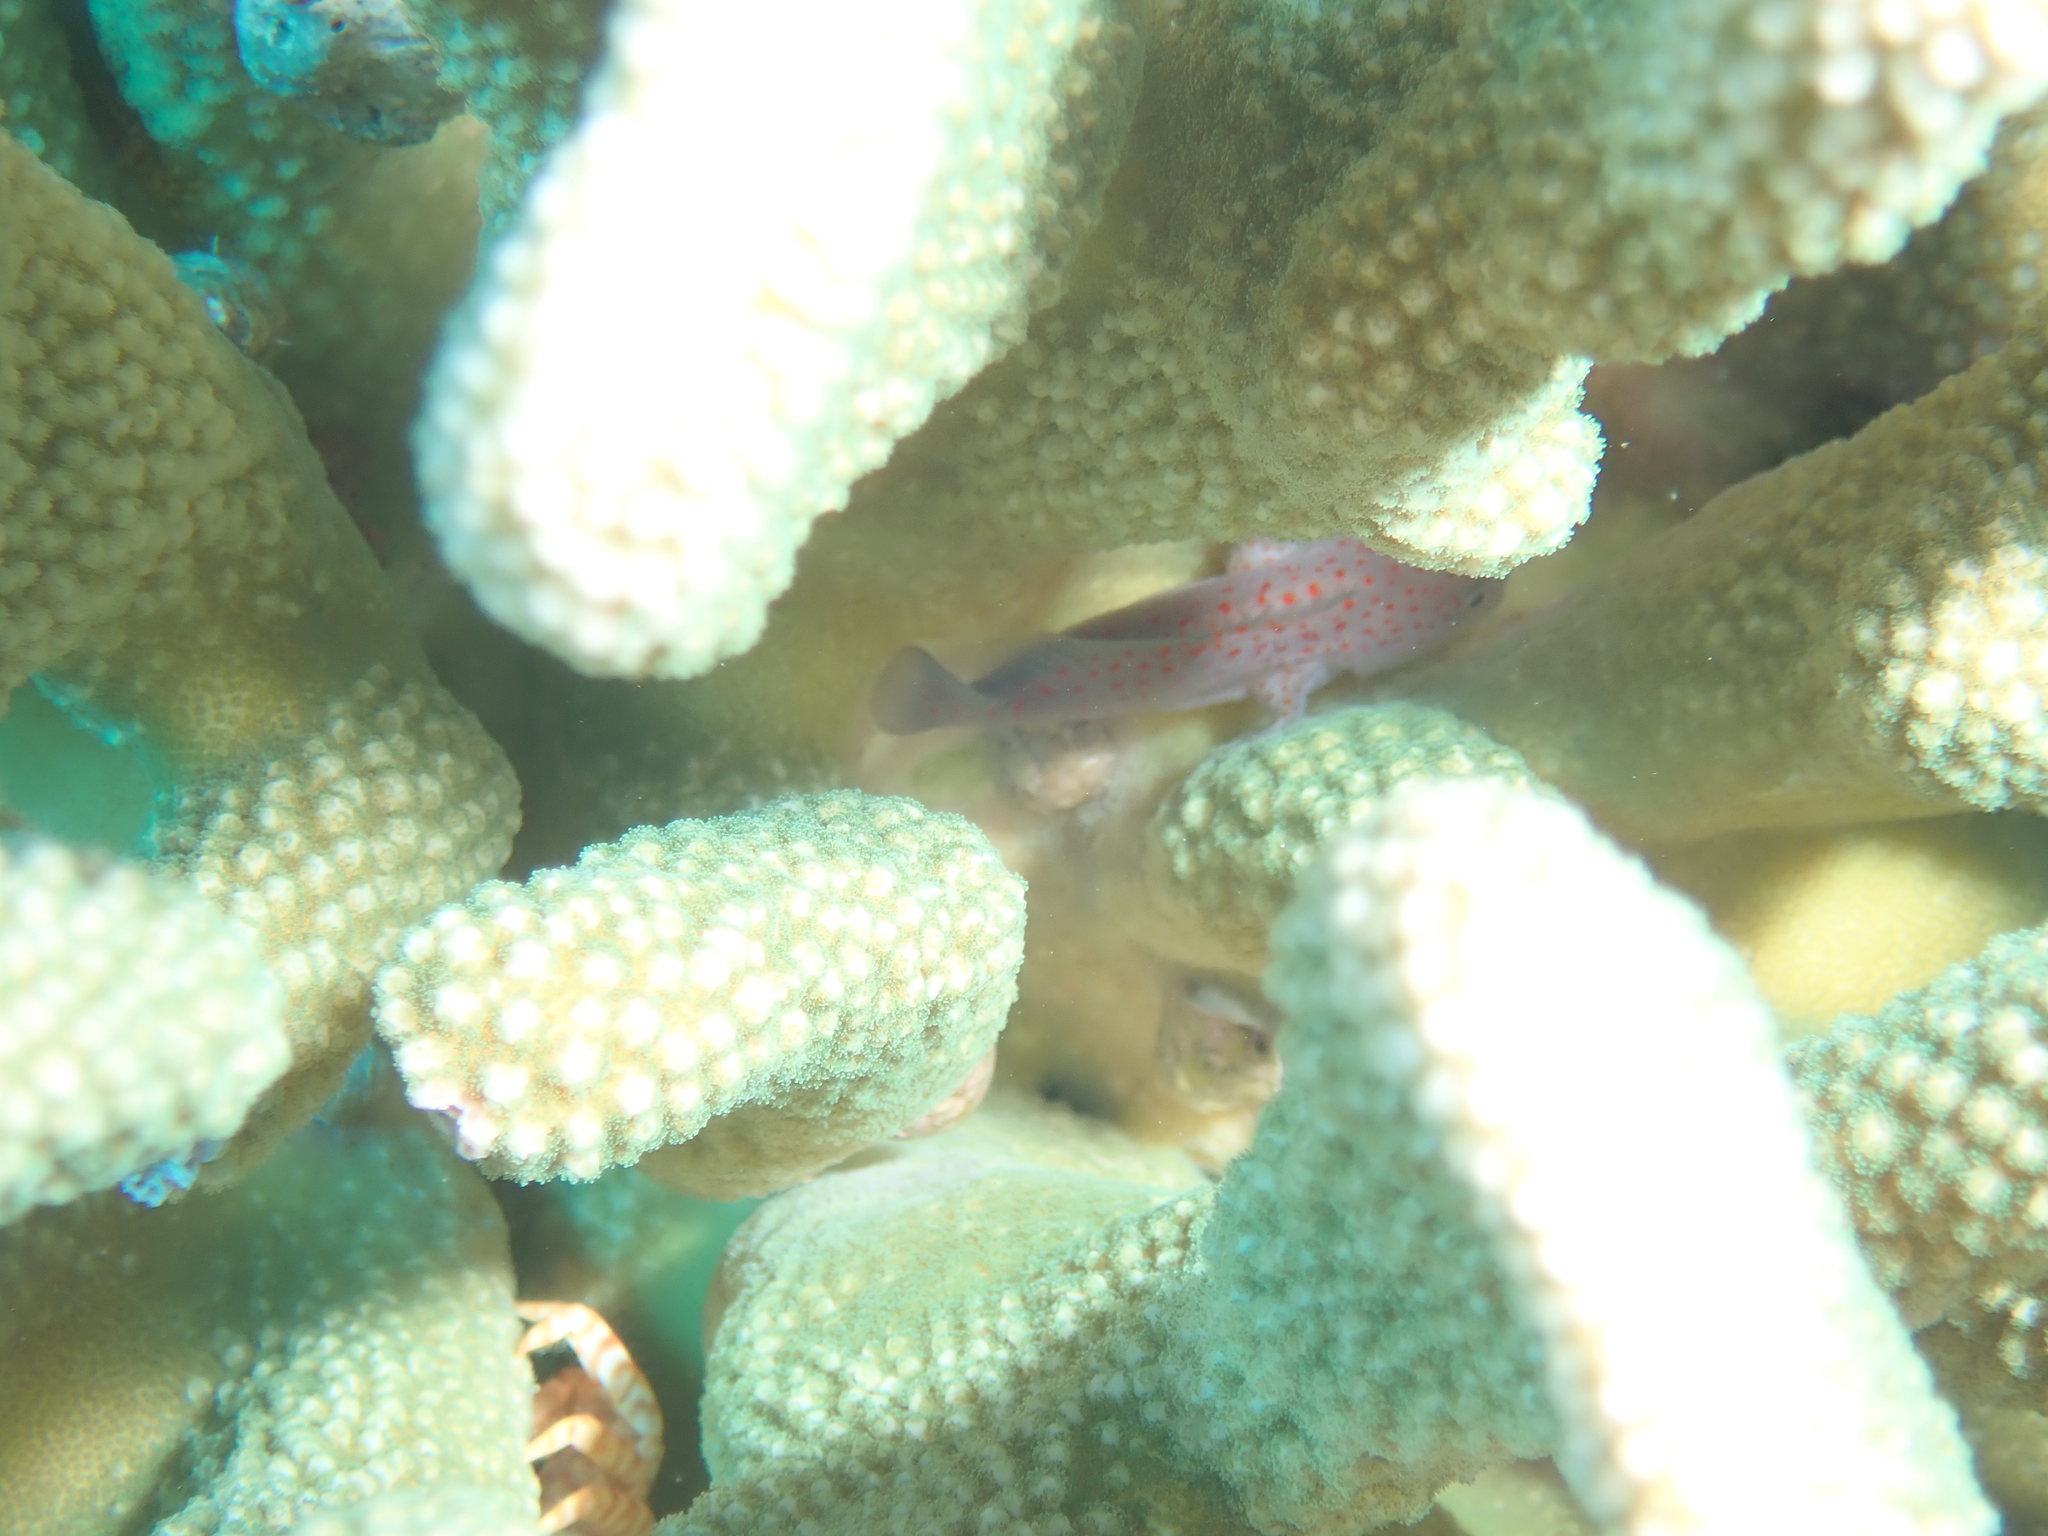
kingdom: Animalia
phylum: Chordata
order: Scorpaeniformes
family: Scorpaenidae
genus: Caracanthus
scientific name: Caracanthus typicus
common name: Hawaiian orbicular velvetfish
